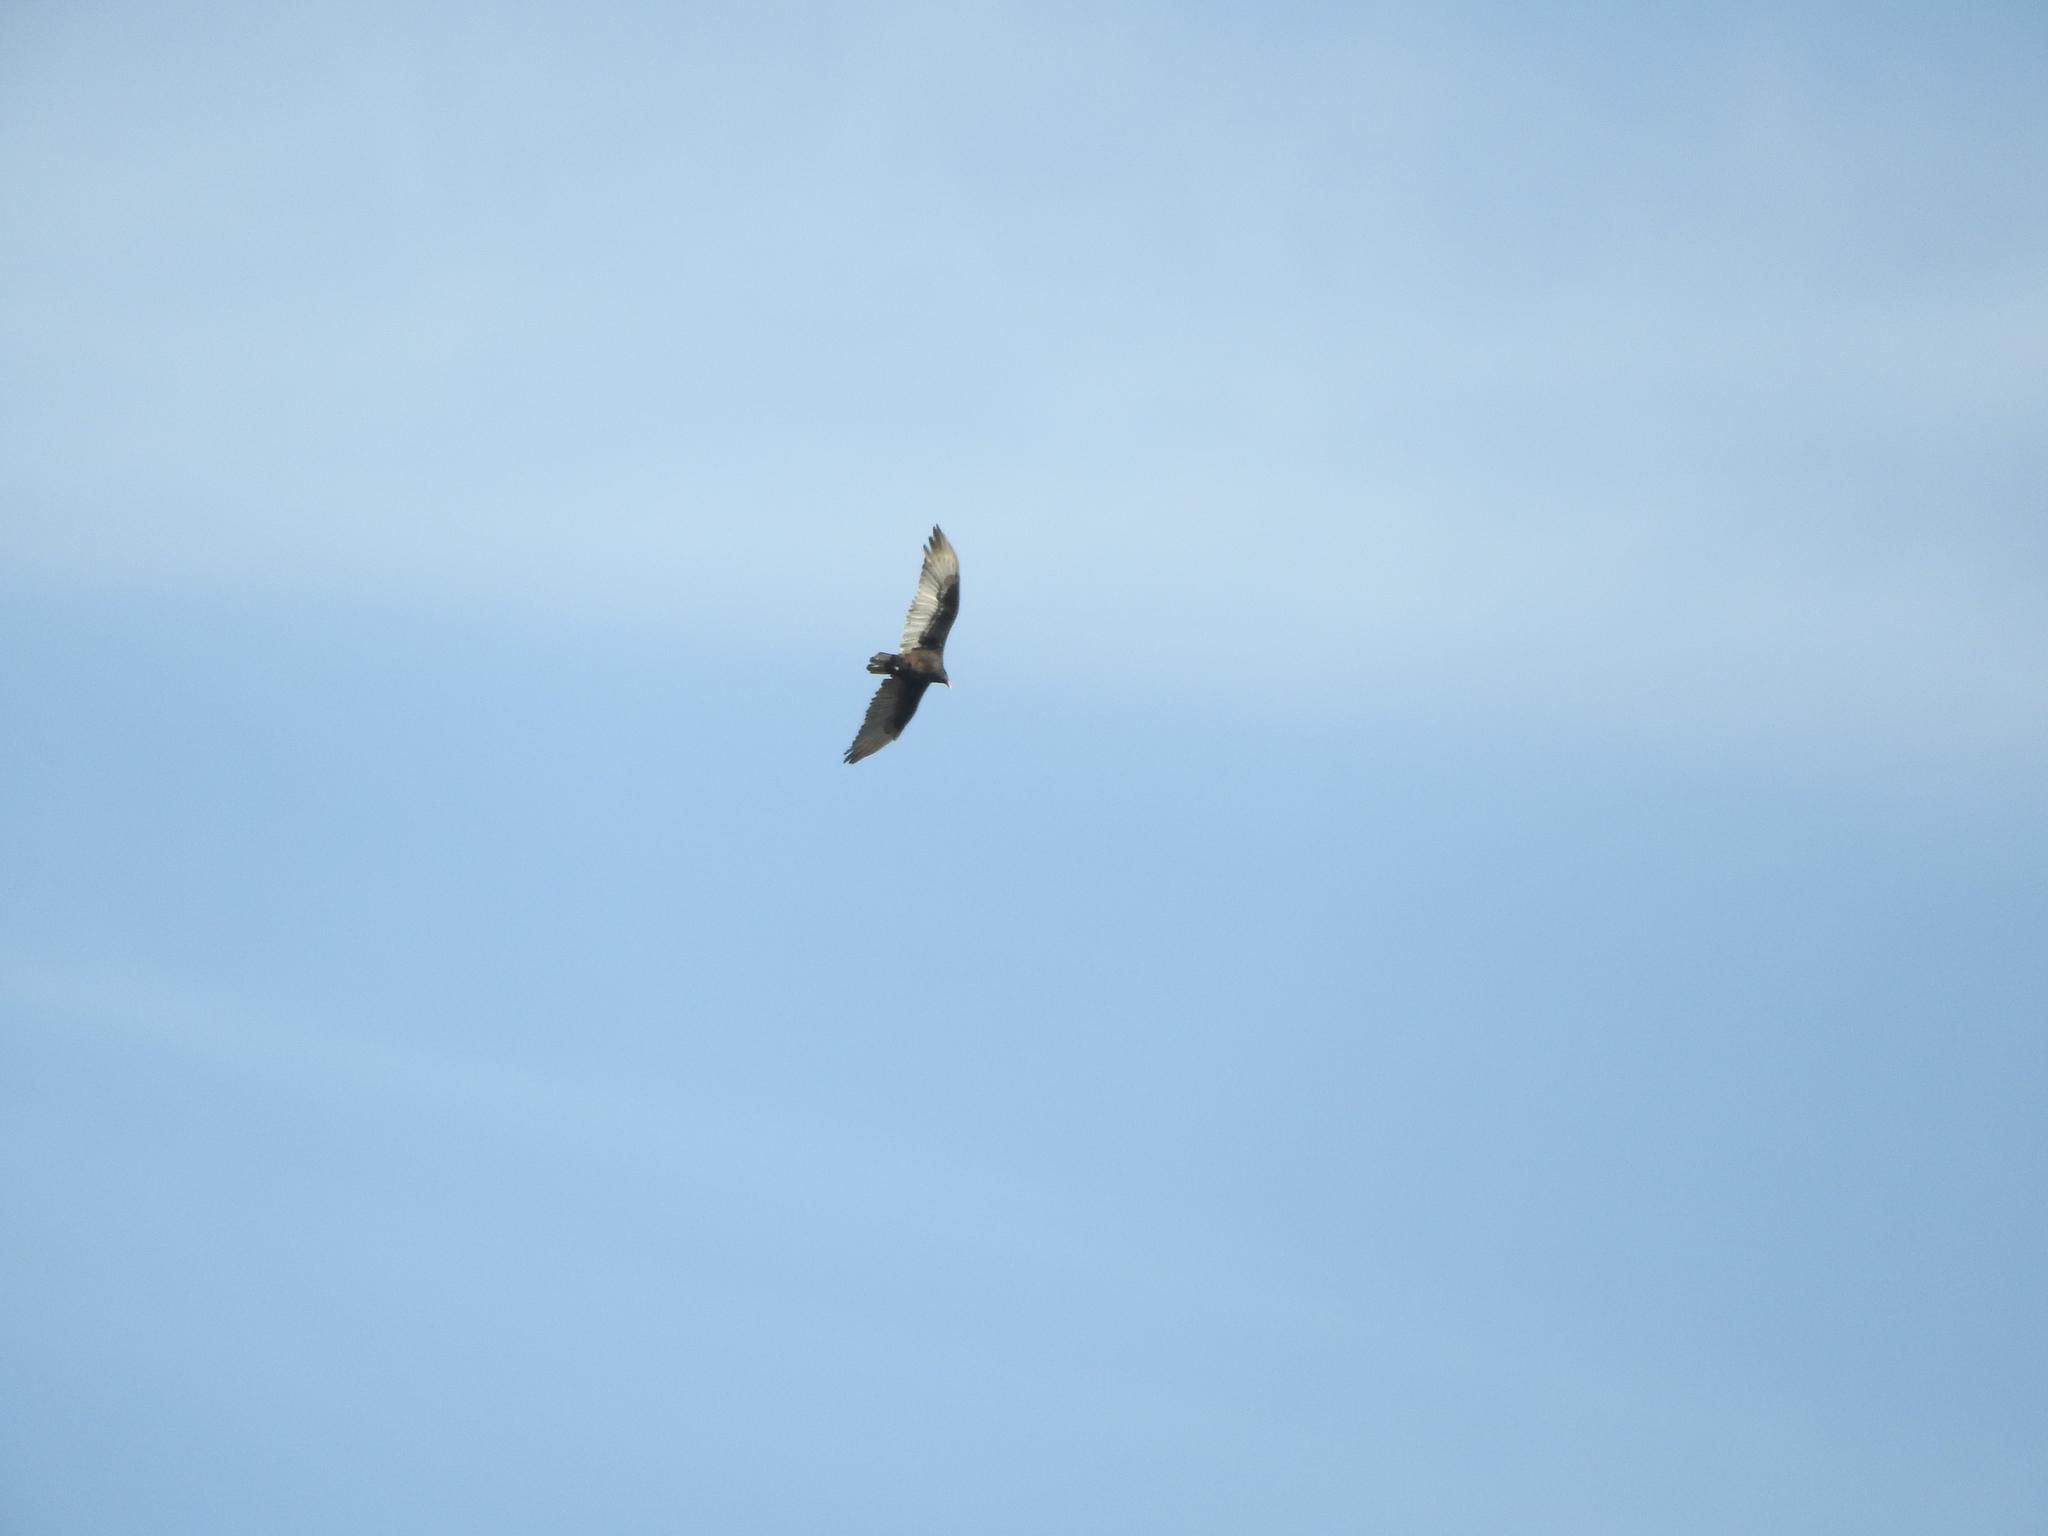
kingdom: Animalia
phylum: Chordata
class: Aves
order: Accipitriformes
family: Cathartidae
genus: Cathartes
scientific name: Cathartes aura
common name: Turkey vulture
